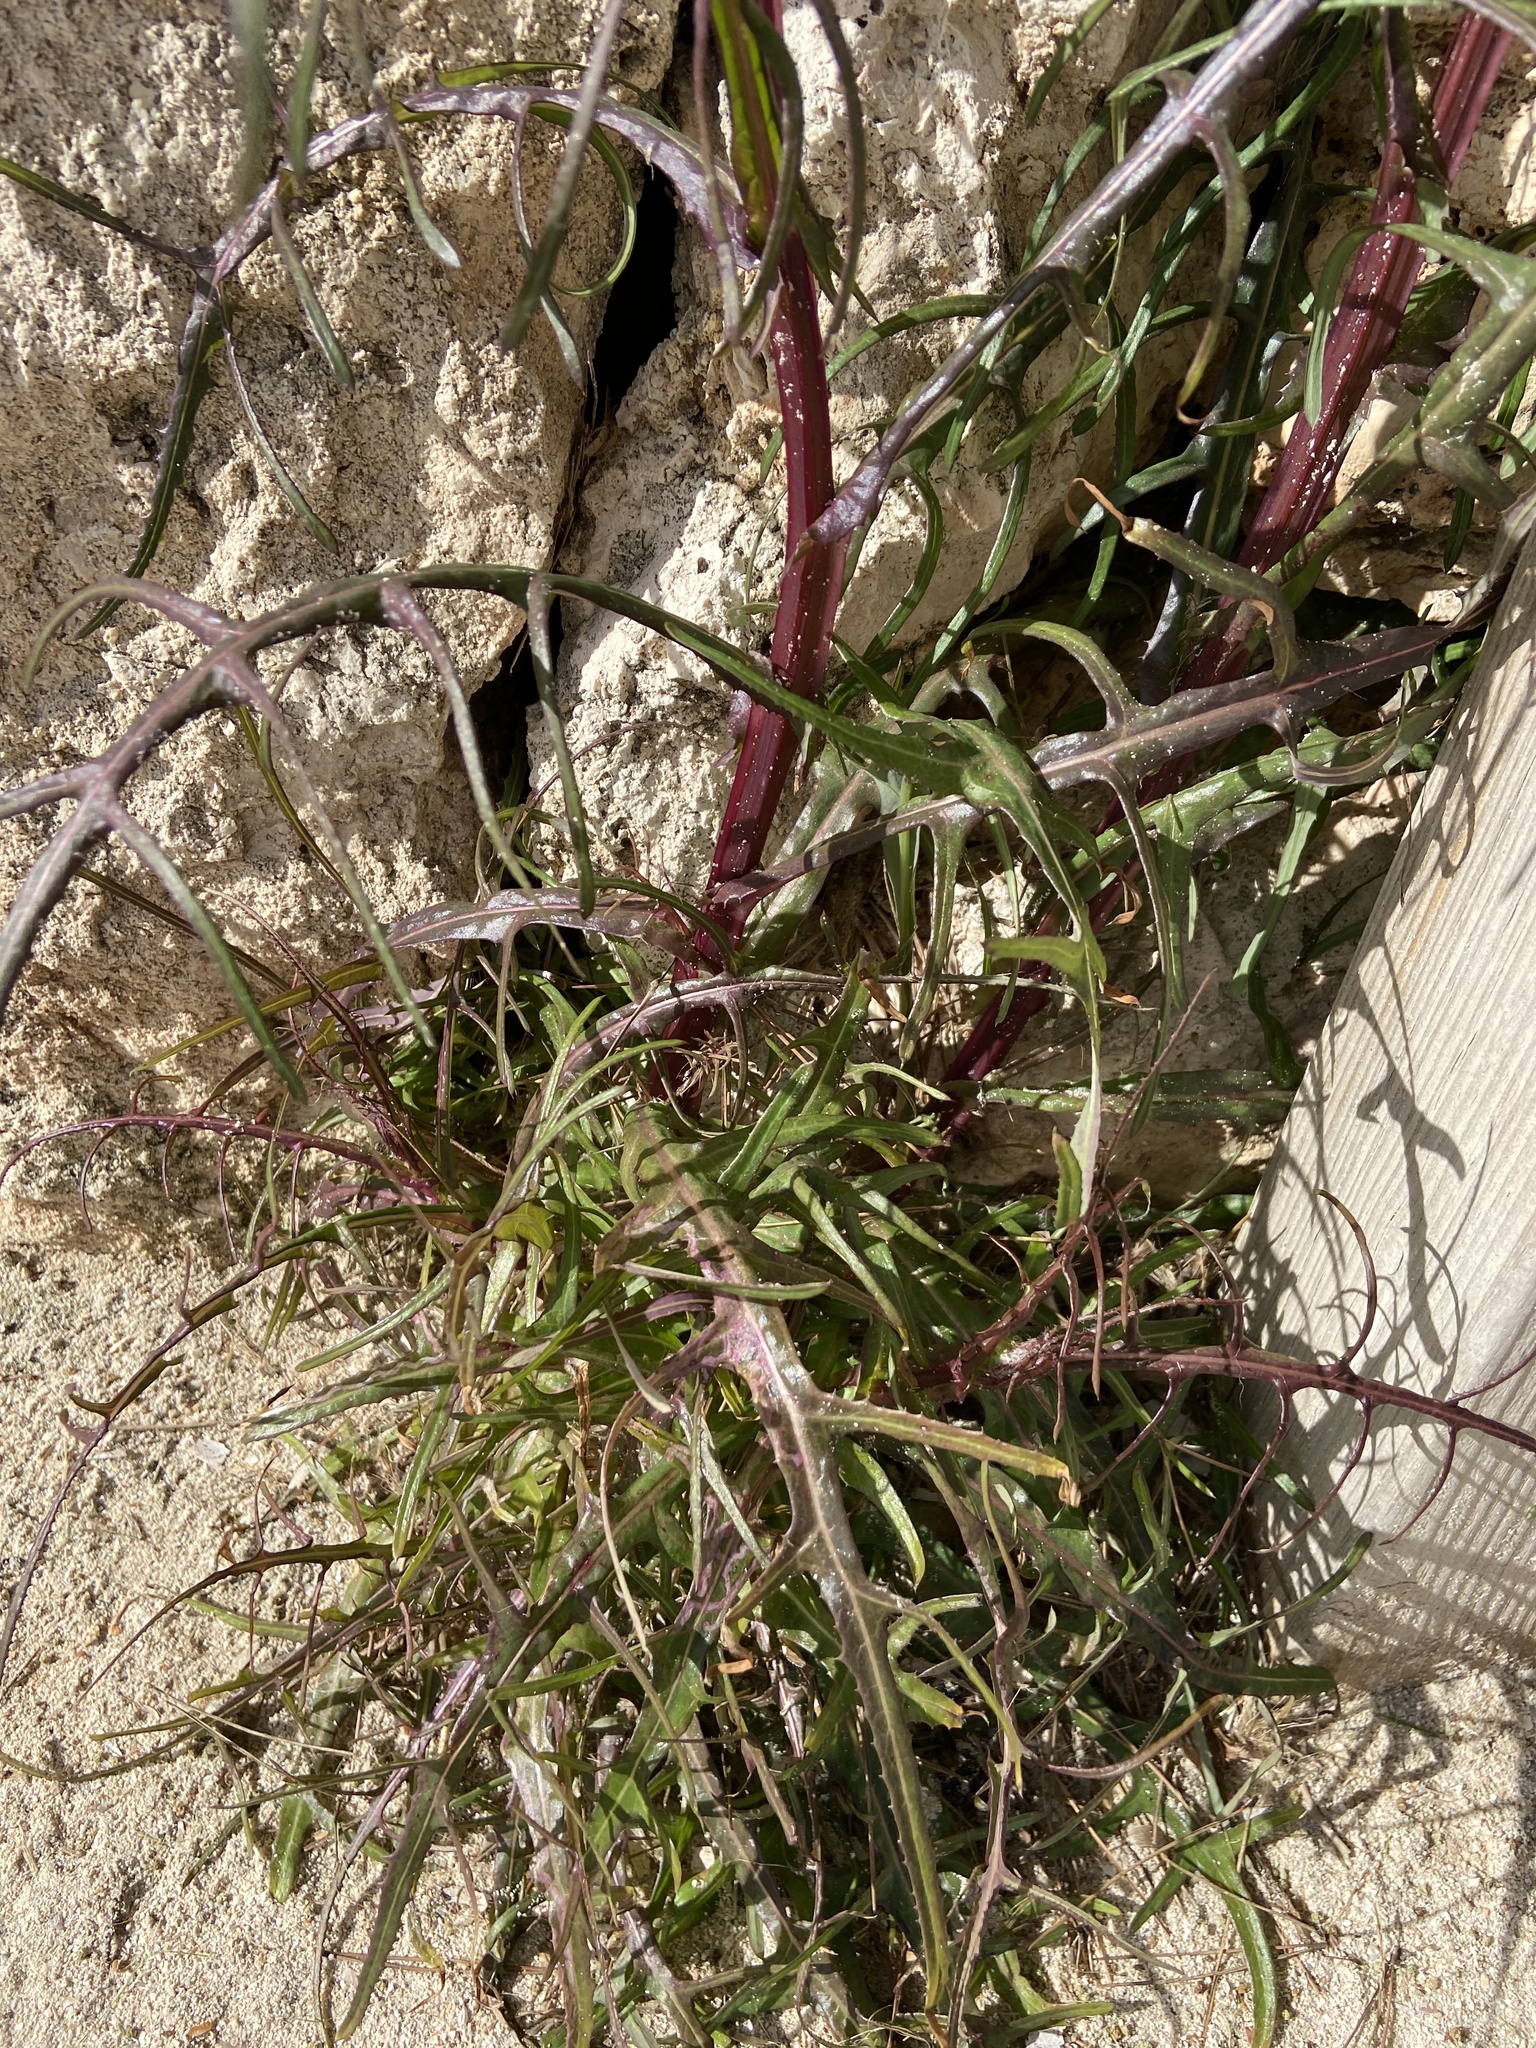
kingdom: Plantae
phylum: Tracheophyta
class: Magnoliopsida
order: Asterales
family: Asteraceae
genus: Sonchus
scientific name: Sonchus tenerrimus
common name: Clammy sowthistle
